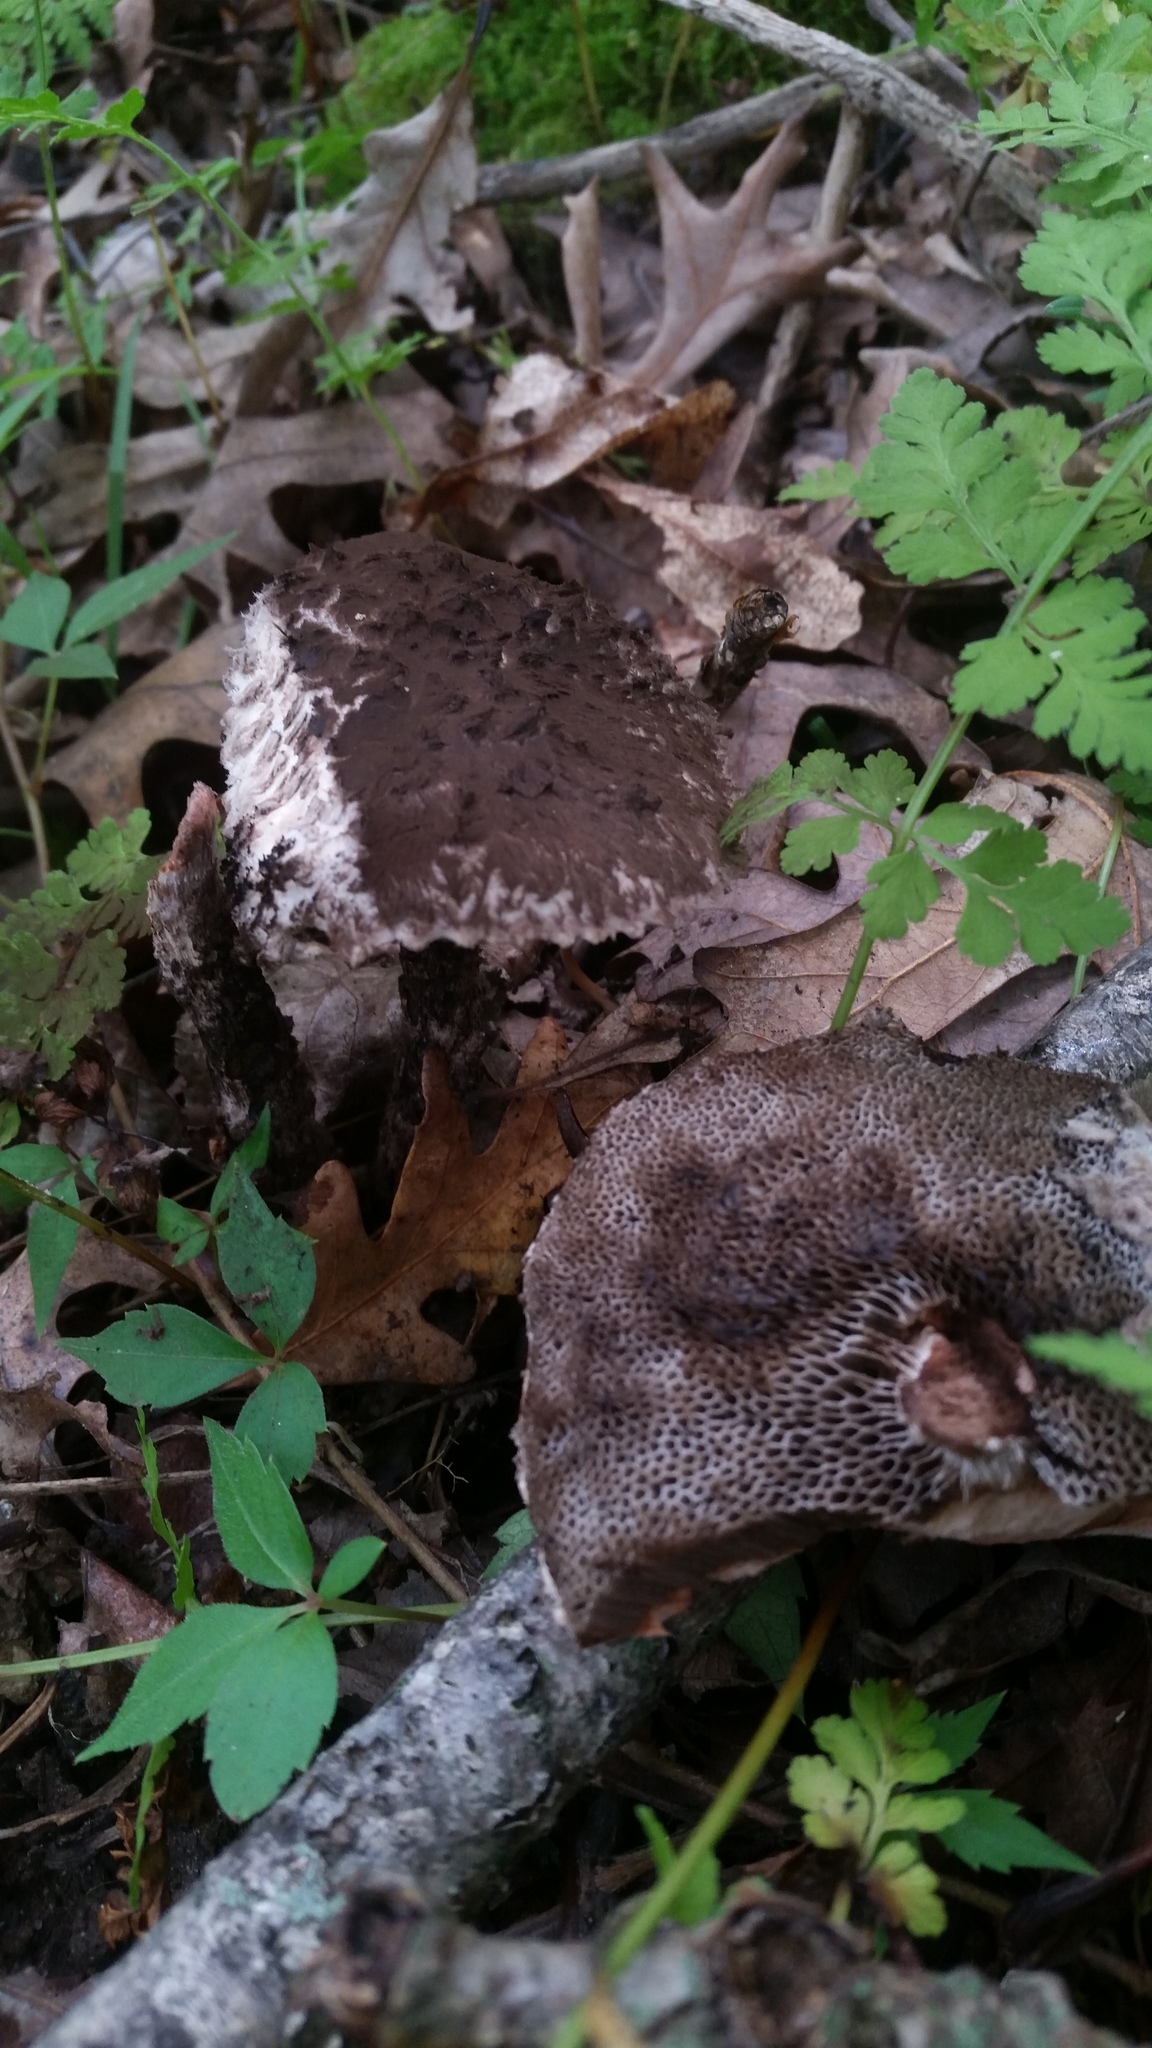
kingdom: Fungi
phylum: Basidiomycota
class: Agaricomycetes
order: Boletales
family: Boletaceae
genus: Strobilomyces
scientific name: Strobilomyces strobilaceus
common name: Old man of the woods
